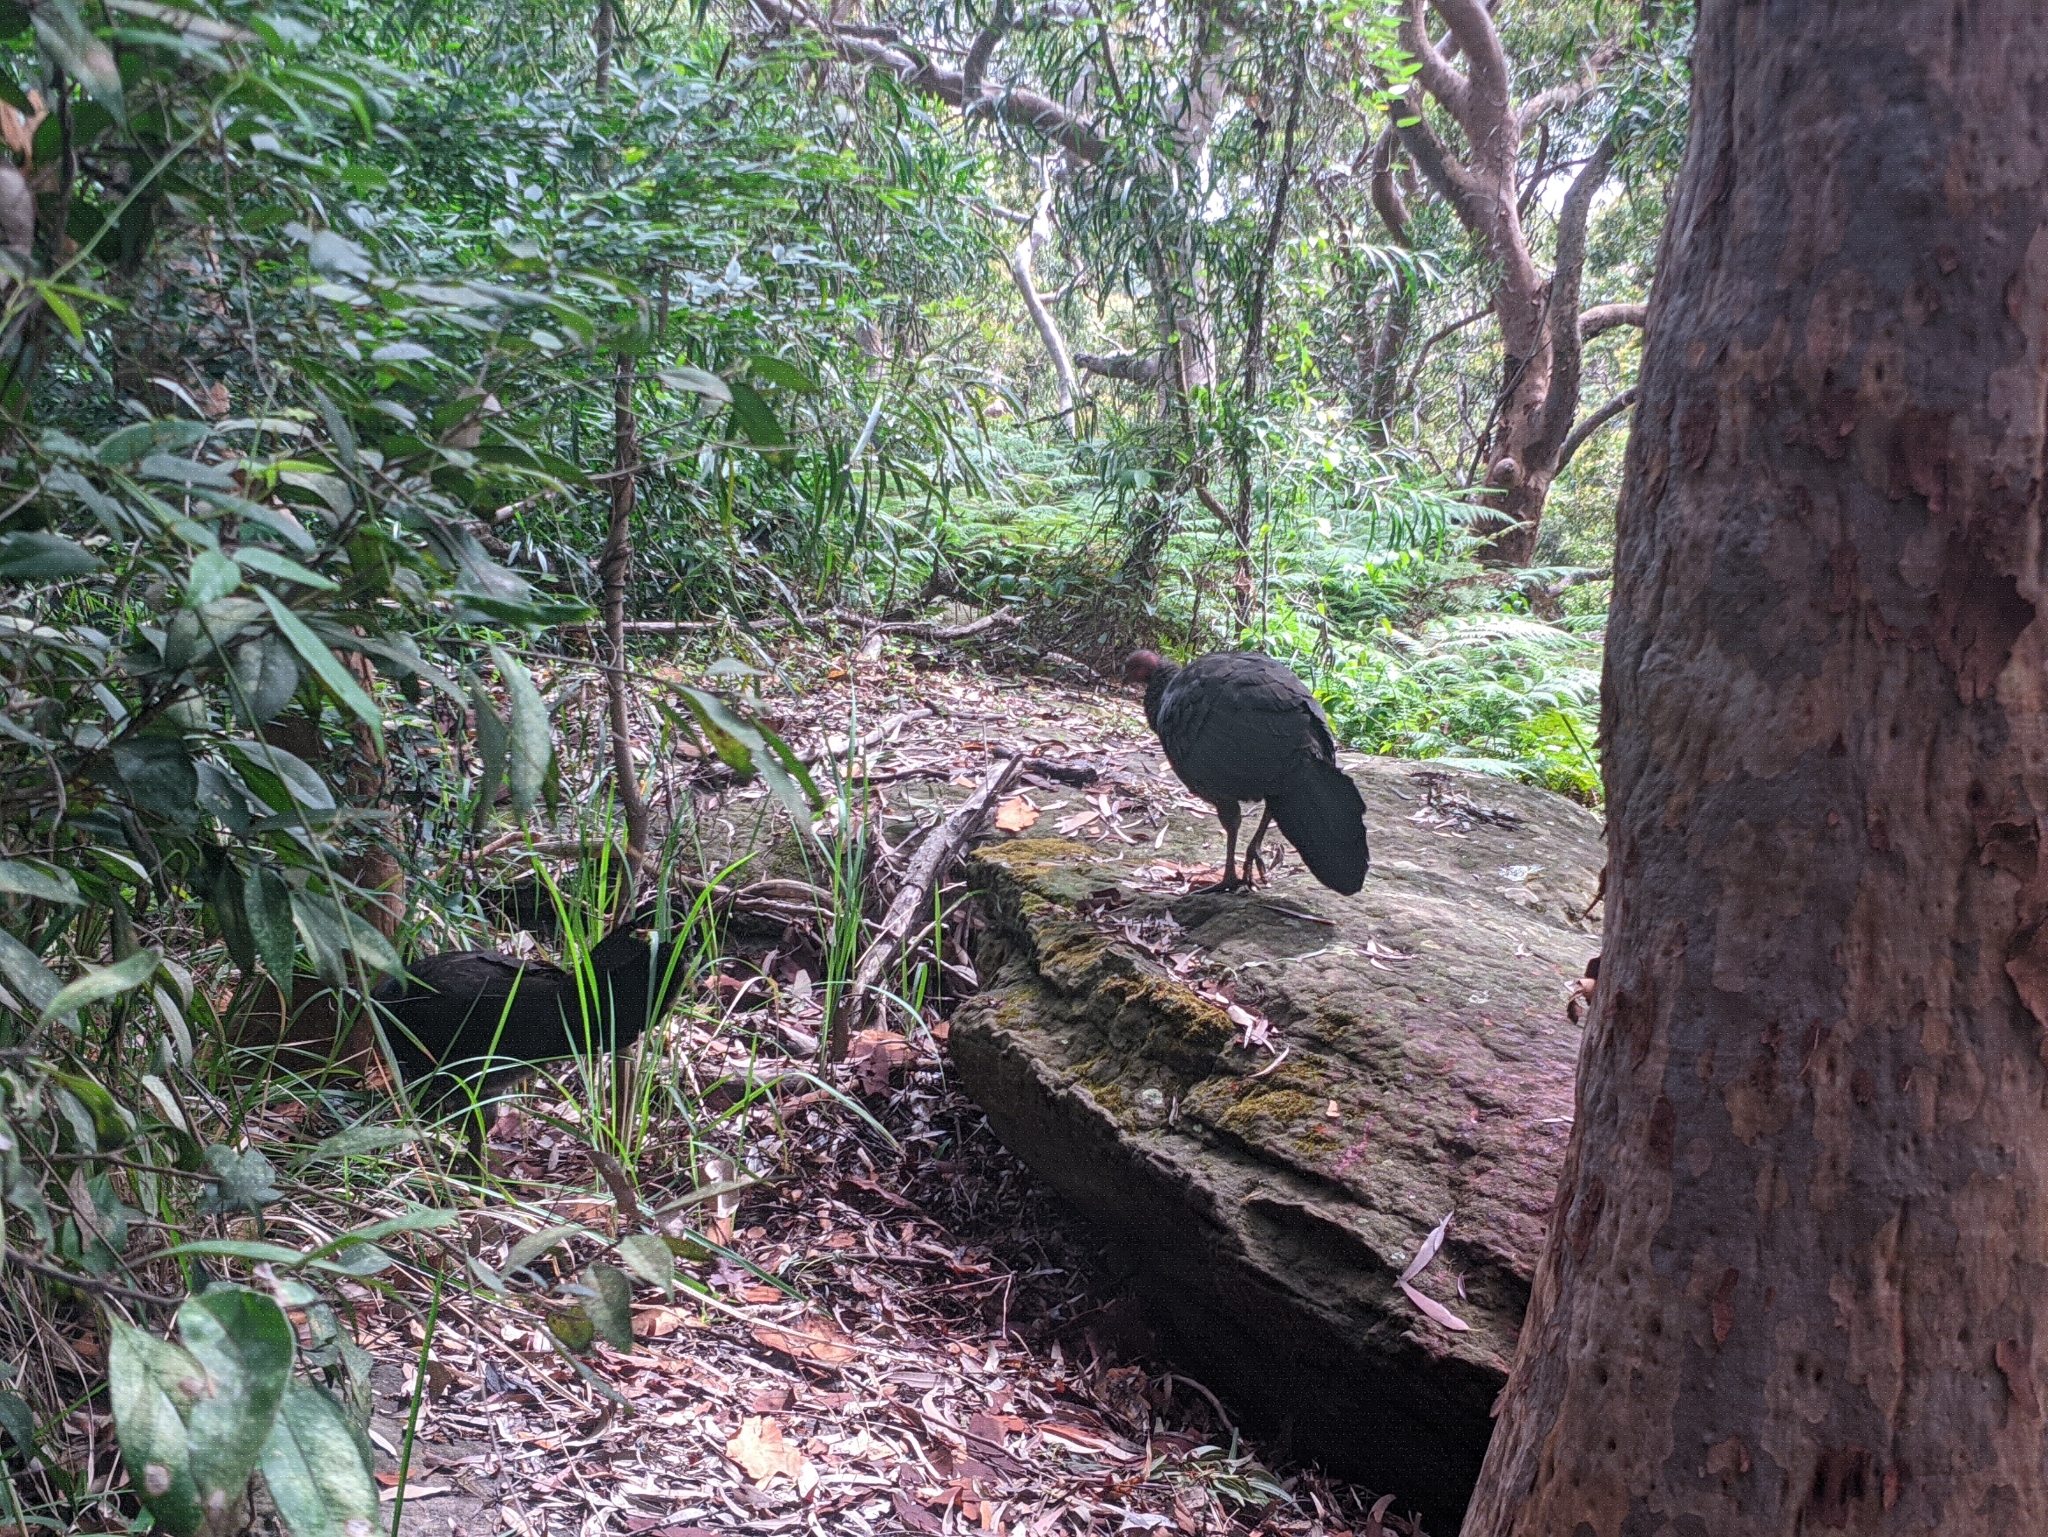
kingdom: Animalia
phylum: Chordata
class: Aves
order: Galliformes
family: Megapodiidae
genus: Alectura
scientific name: Alectura lathami
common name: Australian brushturkey
